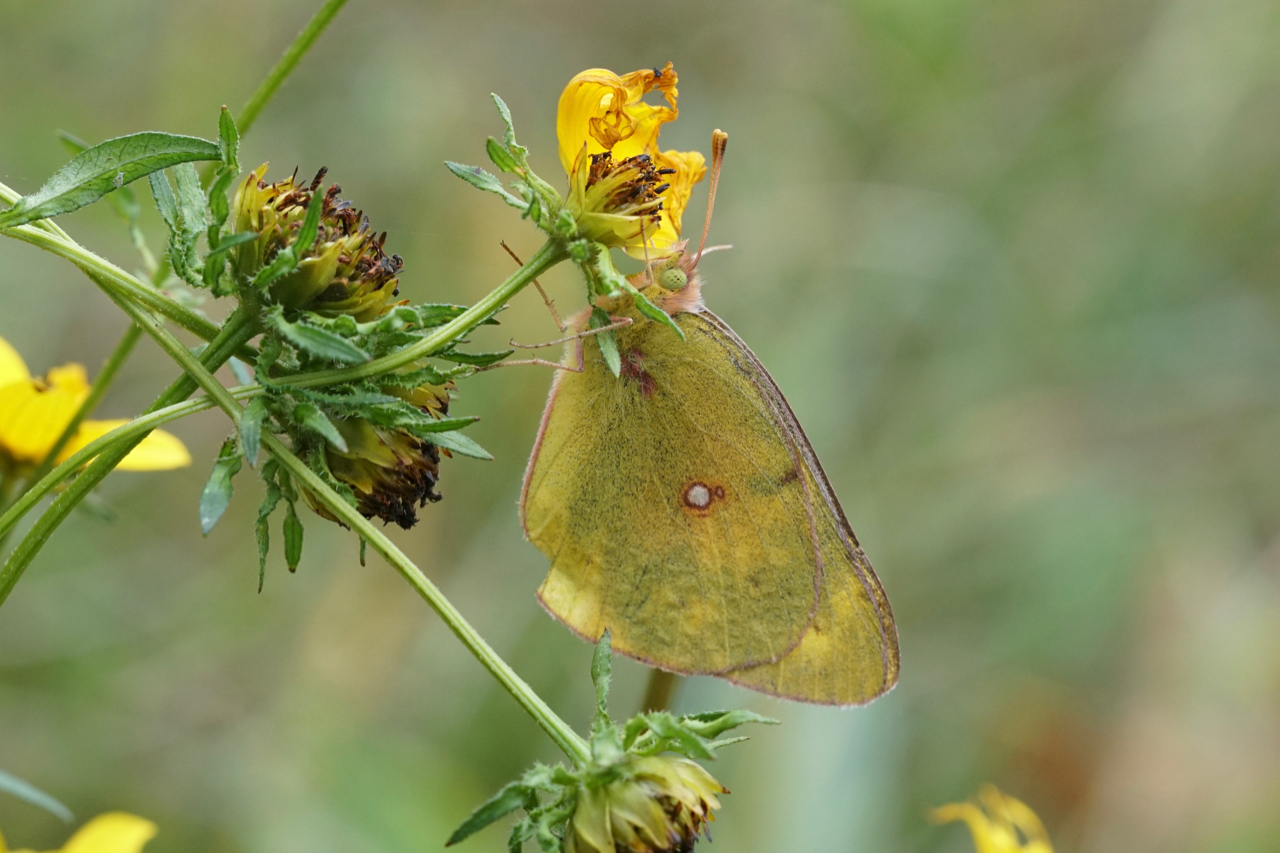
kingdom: Animalia
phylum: Arthropoda
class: Insecta
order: Lepidoptera
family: Pieridae
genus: Colias
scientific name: Colias eurytheme
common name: Alfalfa butterfly
